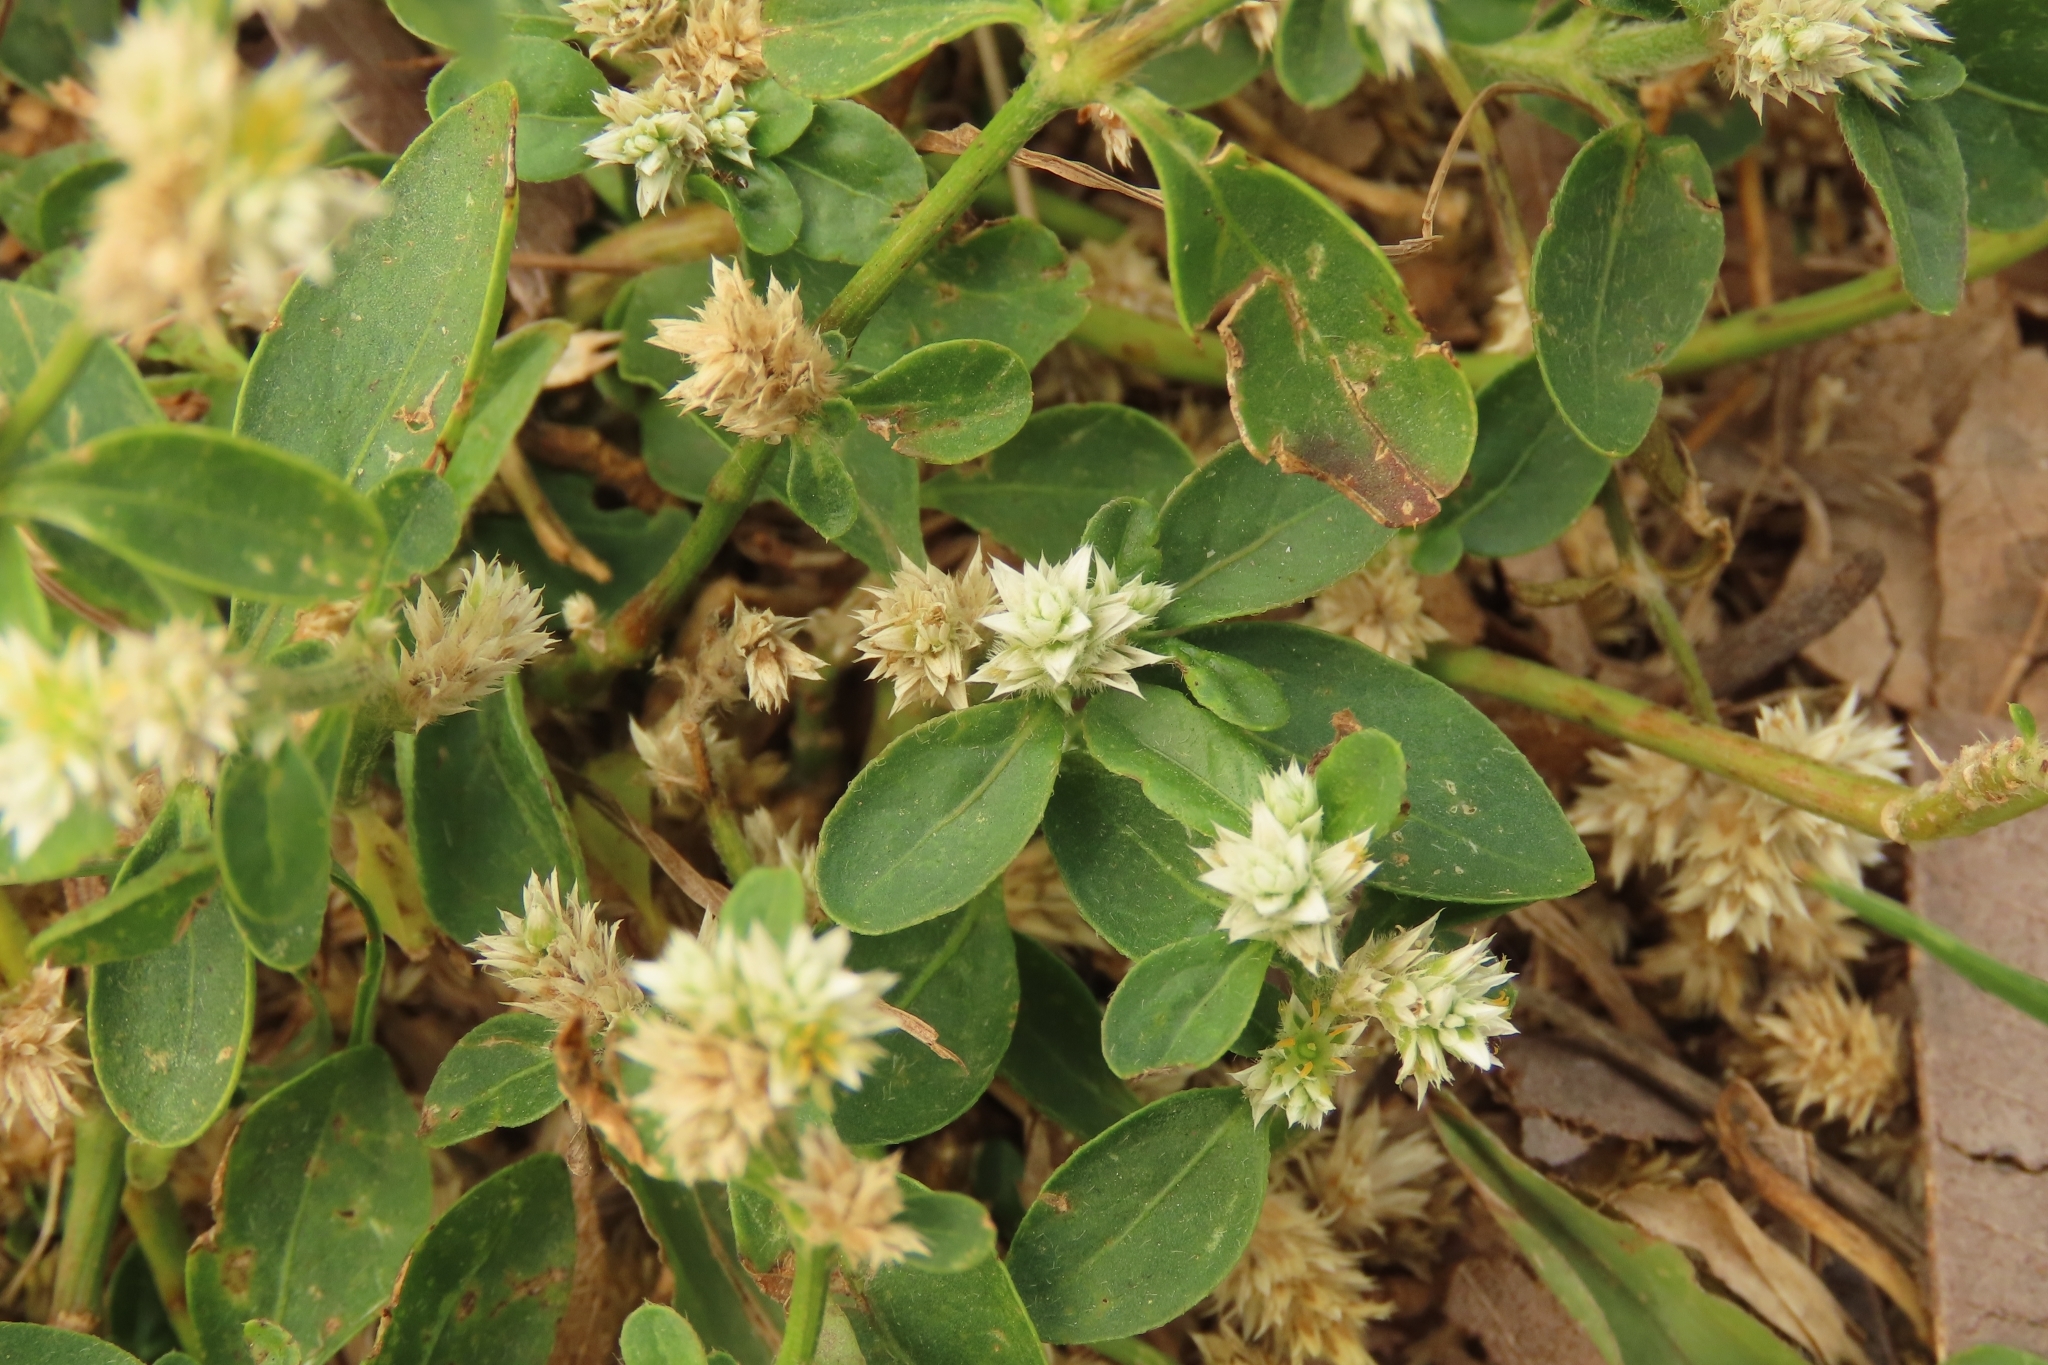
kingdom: Plantae
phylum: Tracheophyta
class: Magnoliopsida
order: Caryophyllales
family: Amaranthaceae
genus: Alternanthera
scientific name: Alternanthera bettzickiana
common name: Calico-plant
